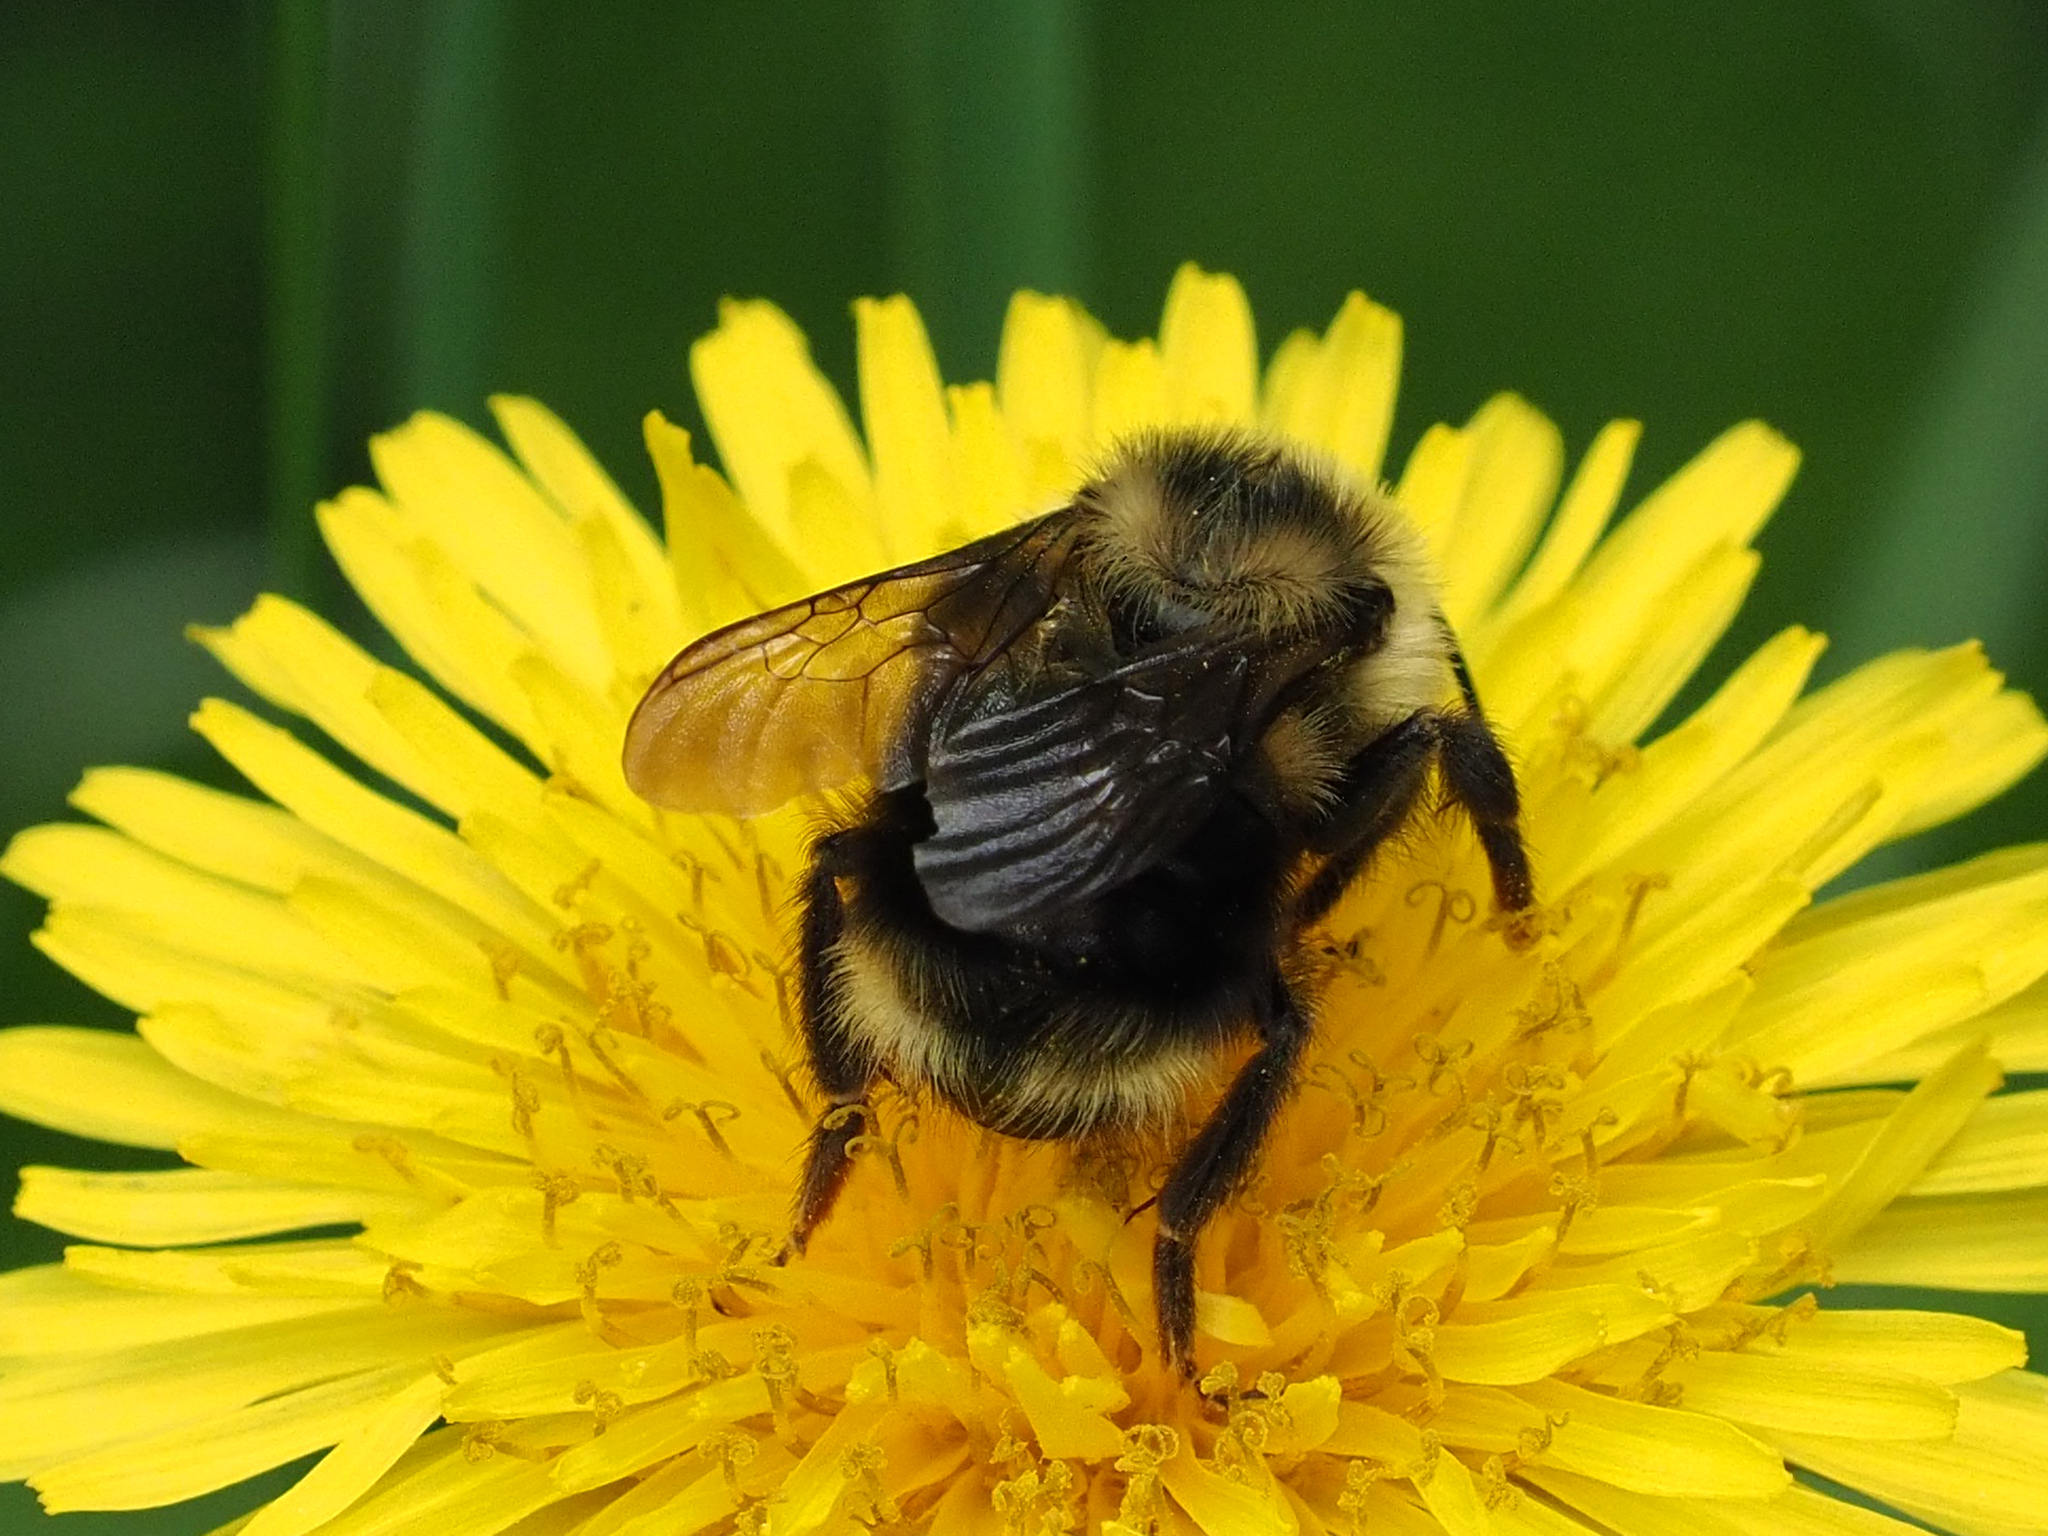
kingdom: Animalia
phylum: Arthropoda
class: Insecta
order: Hymenoptera
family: Apidae
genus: Bombus
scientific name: Bombus flavidus
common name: Fernald cuckoo bumble bee
